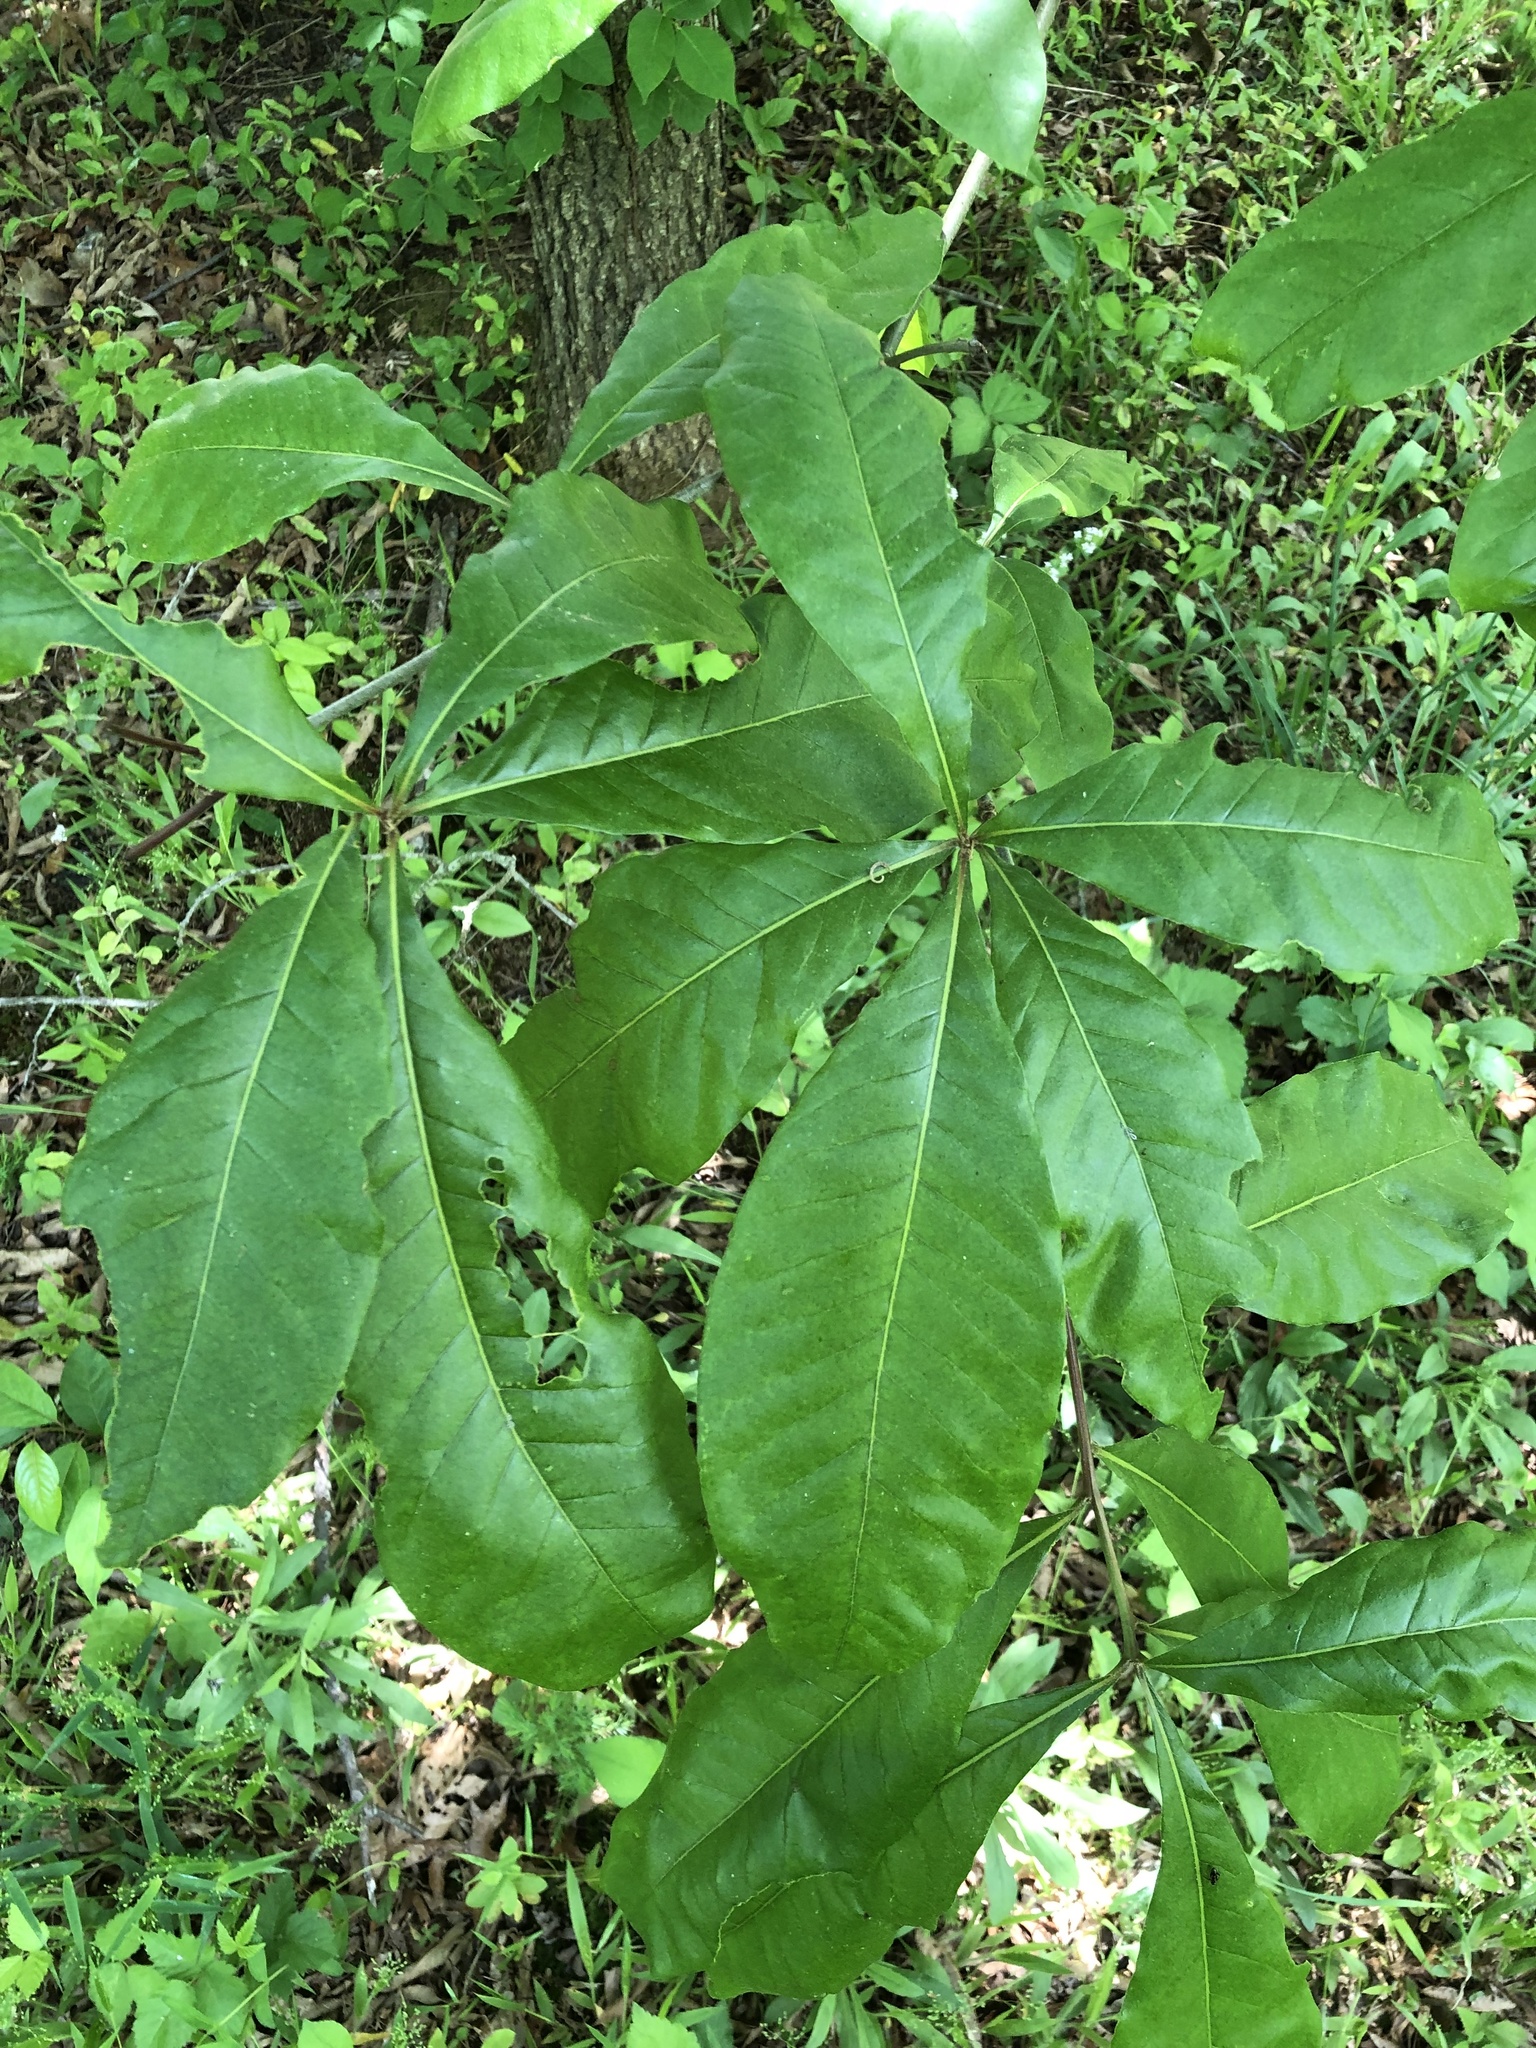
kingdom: Plantae
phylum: Tracheophyta
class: Magnoliopsida
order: Fagales
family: Fagaceae
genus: Quercus
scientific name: Quercus imbricaria
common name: Shingle oak
